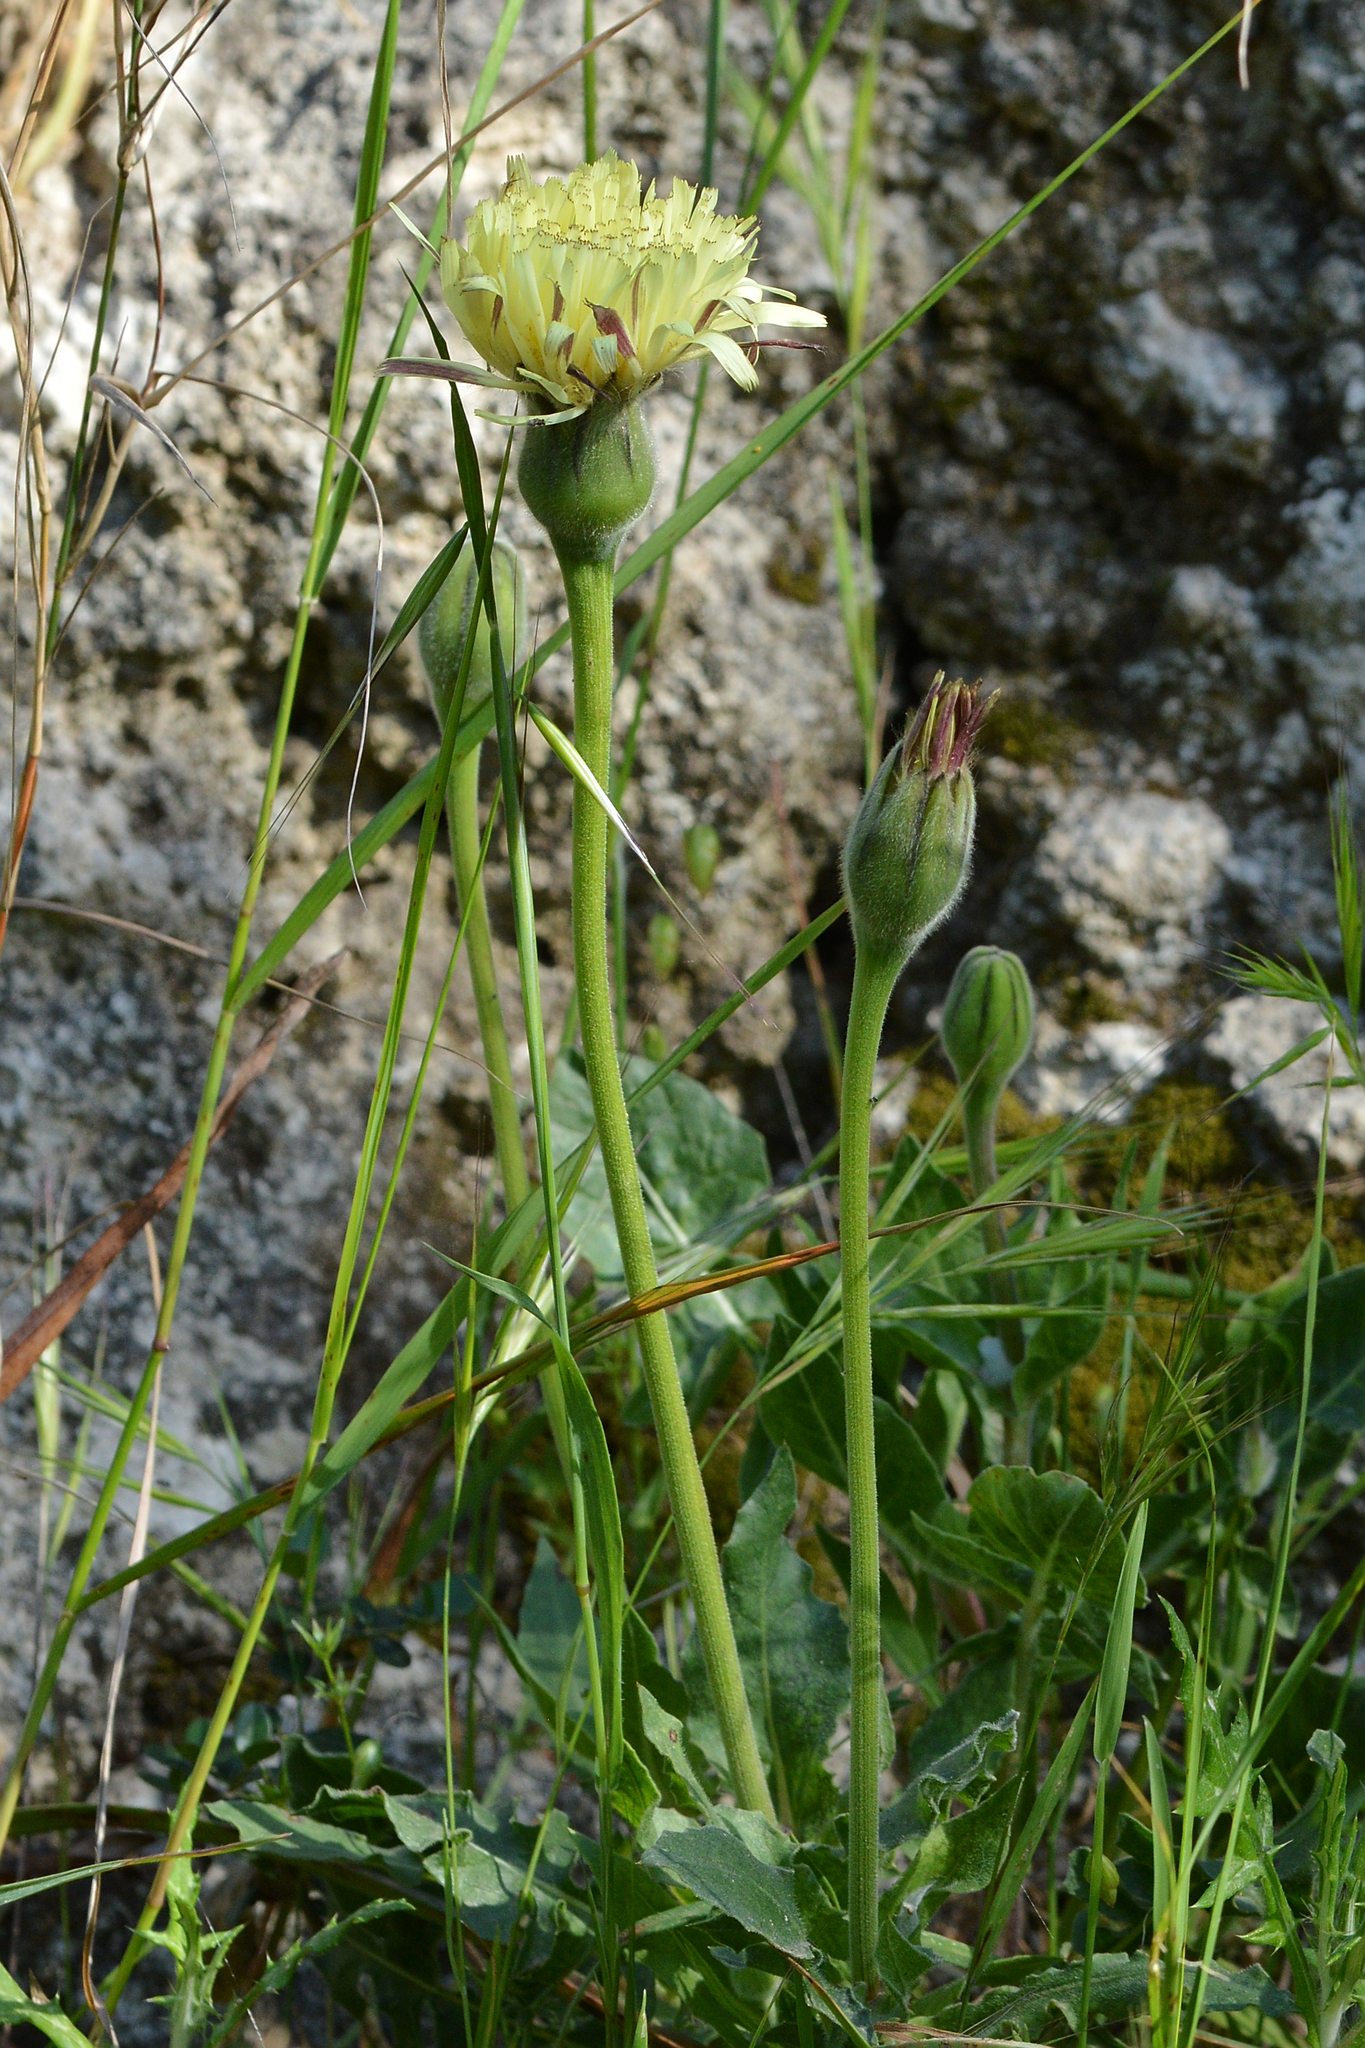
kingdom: Plantae
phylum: Tracheophyta
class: Magnoliopsida
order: Asterales
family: Asteraceae
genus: Urospermum
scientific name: Urospermum dalechampii
